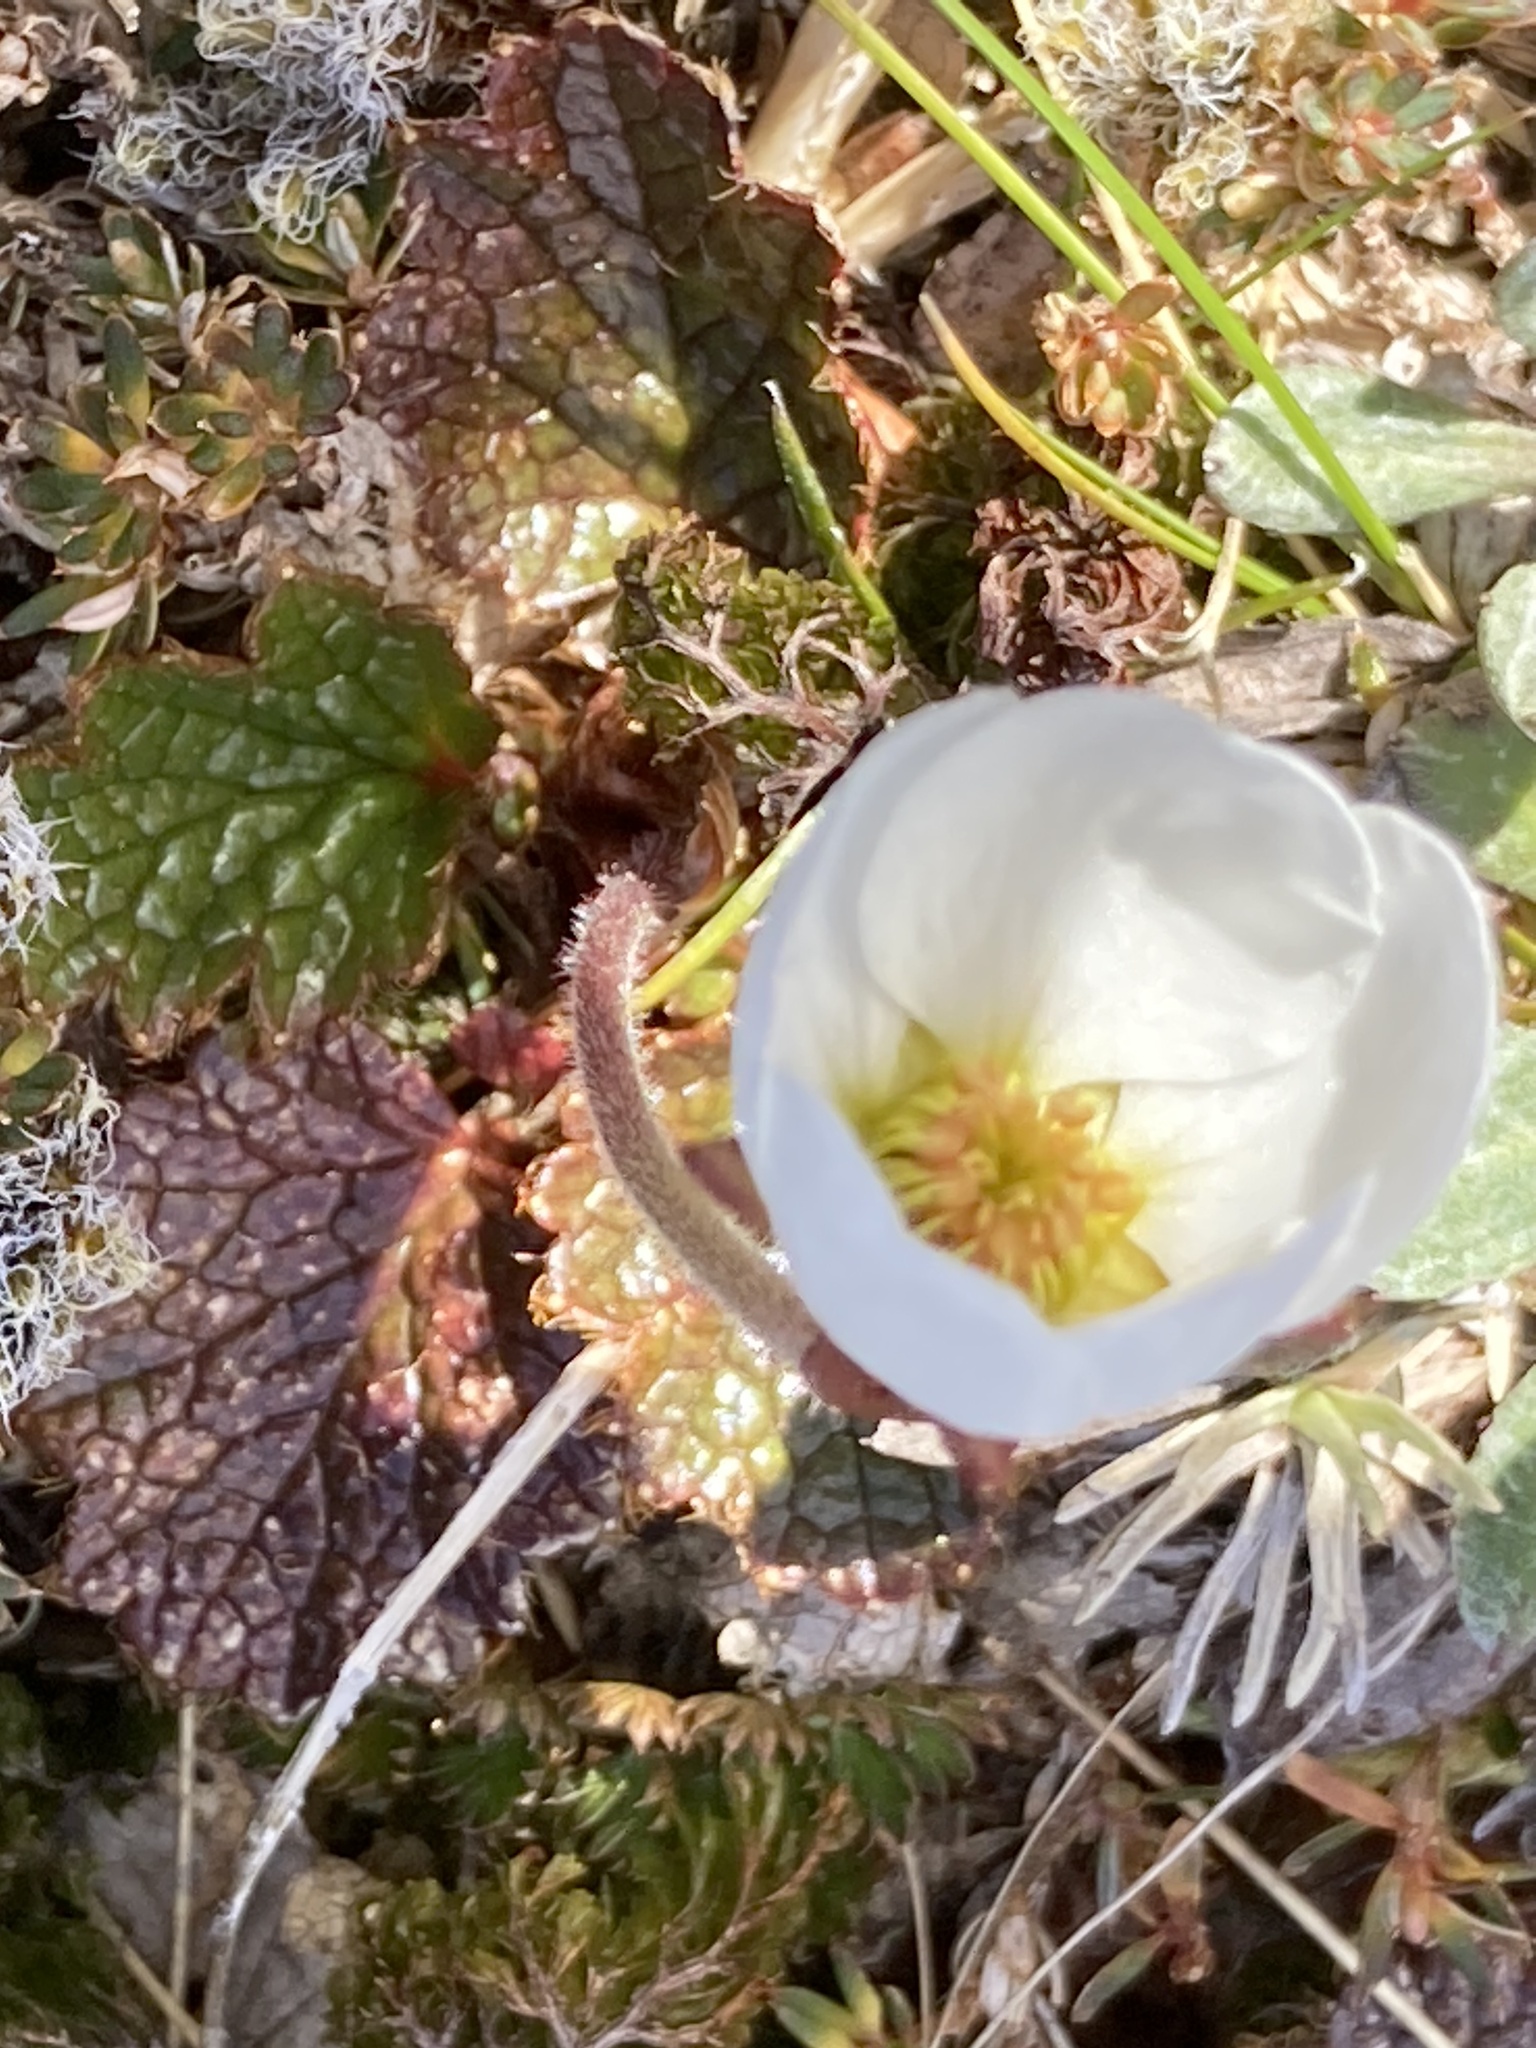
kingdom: Plantae
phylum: Tracheophyta
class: Magnoliopsida
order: Rosales
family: Rosaceae
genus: Geum
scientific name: Geum uniflorum
